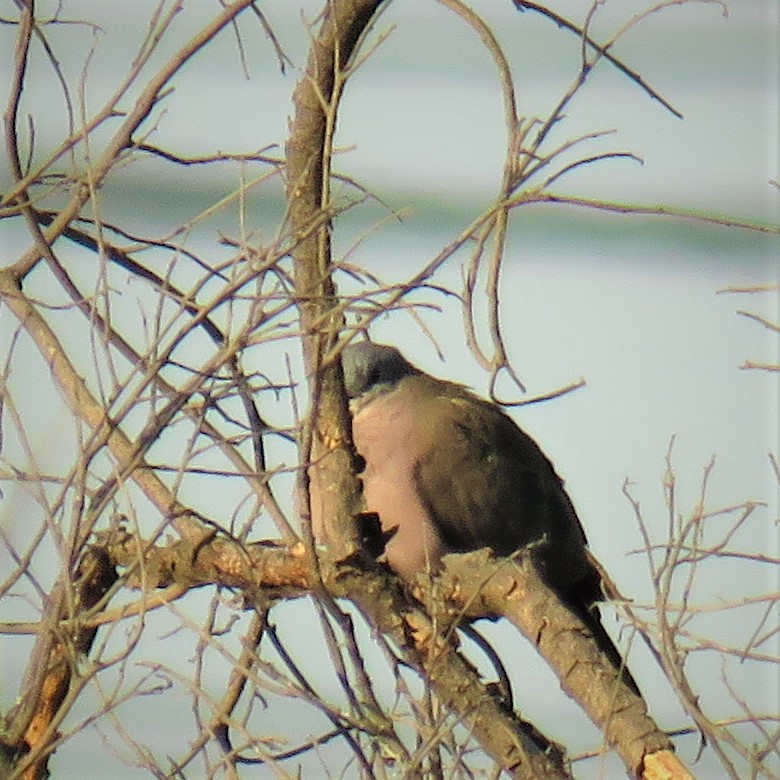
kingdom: Animalia
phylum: Chordata
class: Aves
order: Columbiformes
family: Columbidae
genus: Turtur
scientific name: Turtur chalcospilos
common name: Emerald-spotted wood dove
